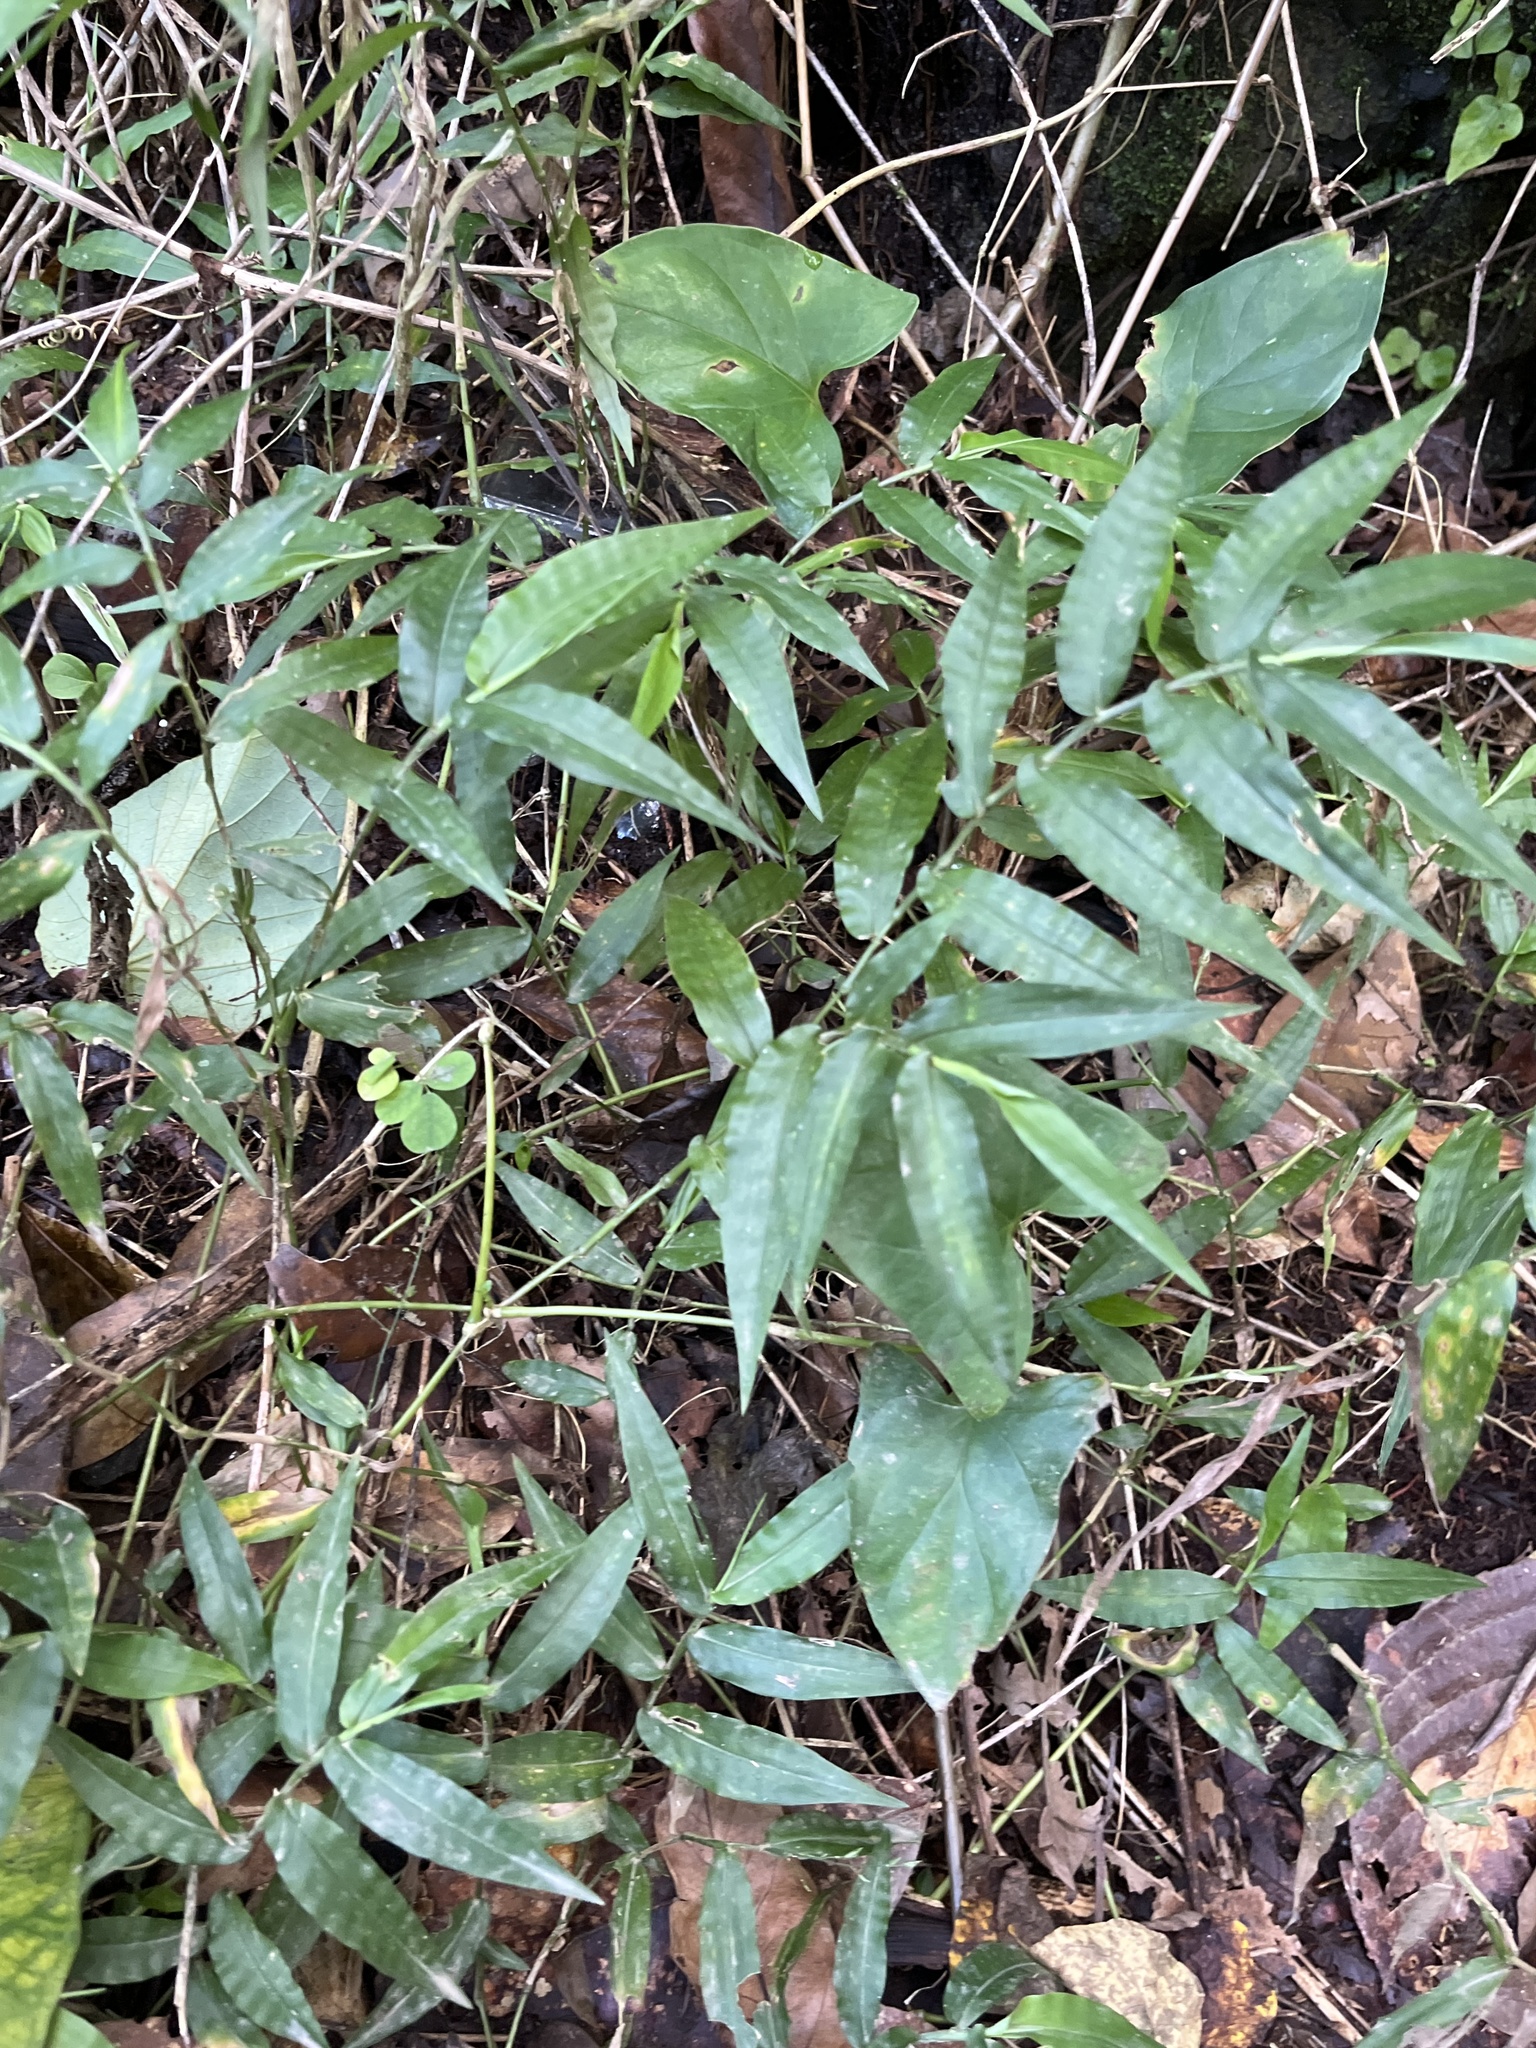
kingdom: Plantae
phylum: Tracheophyta
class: Liliopsida
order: Poales
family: Poaceae
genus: Ichnanthus
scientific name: Ichnanthus pallens
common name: Water grass
